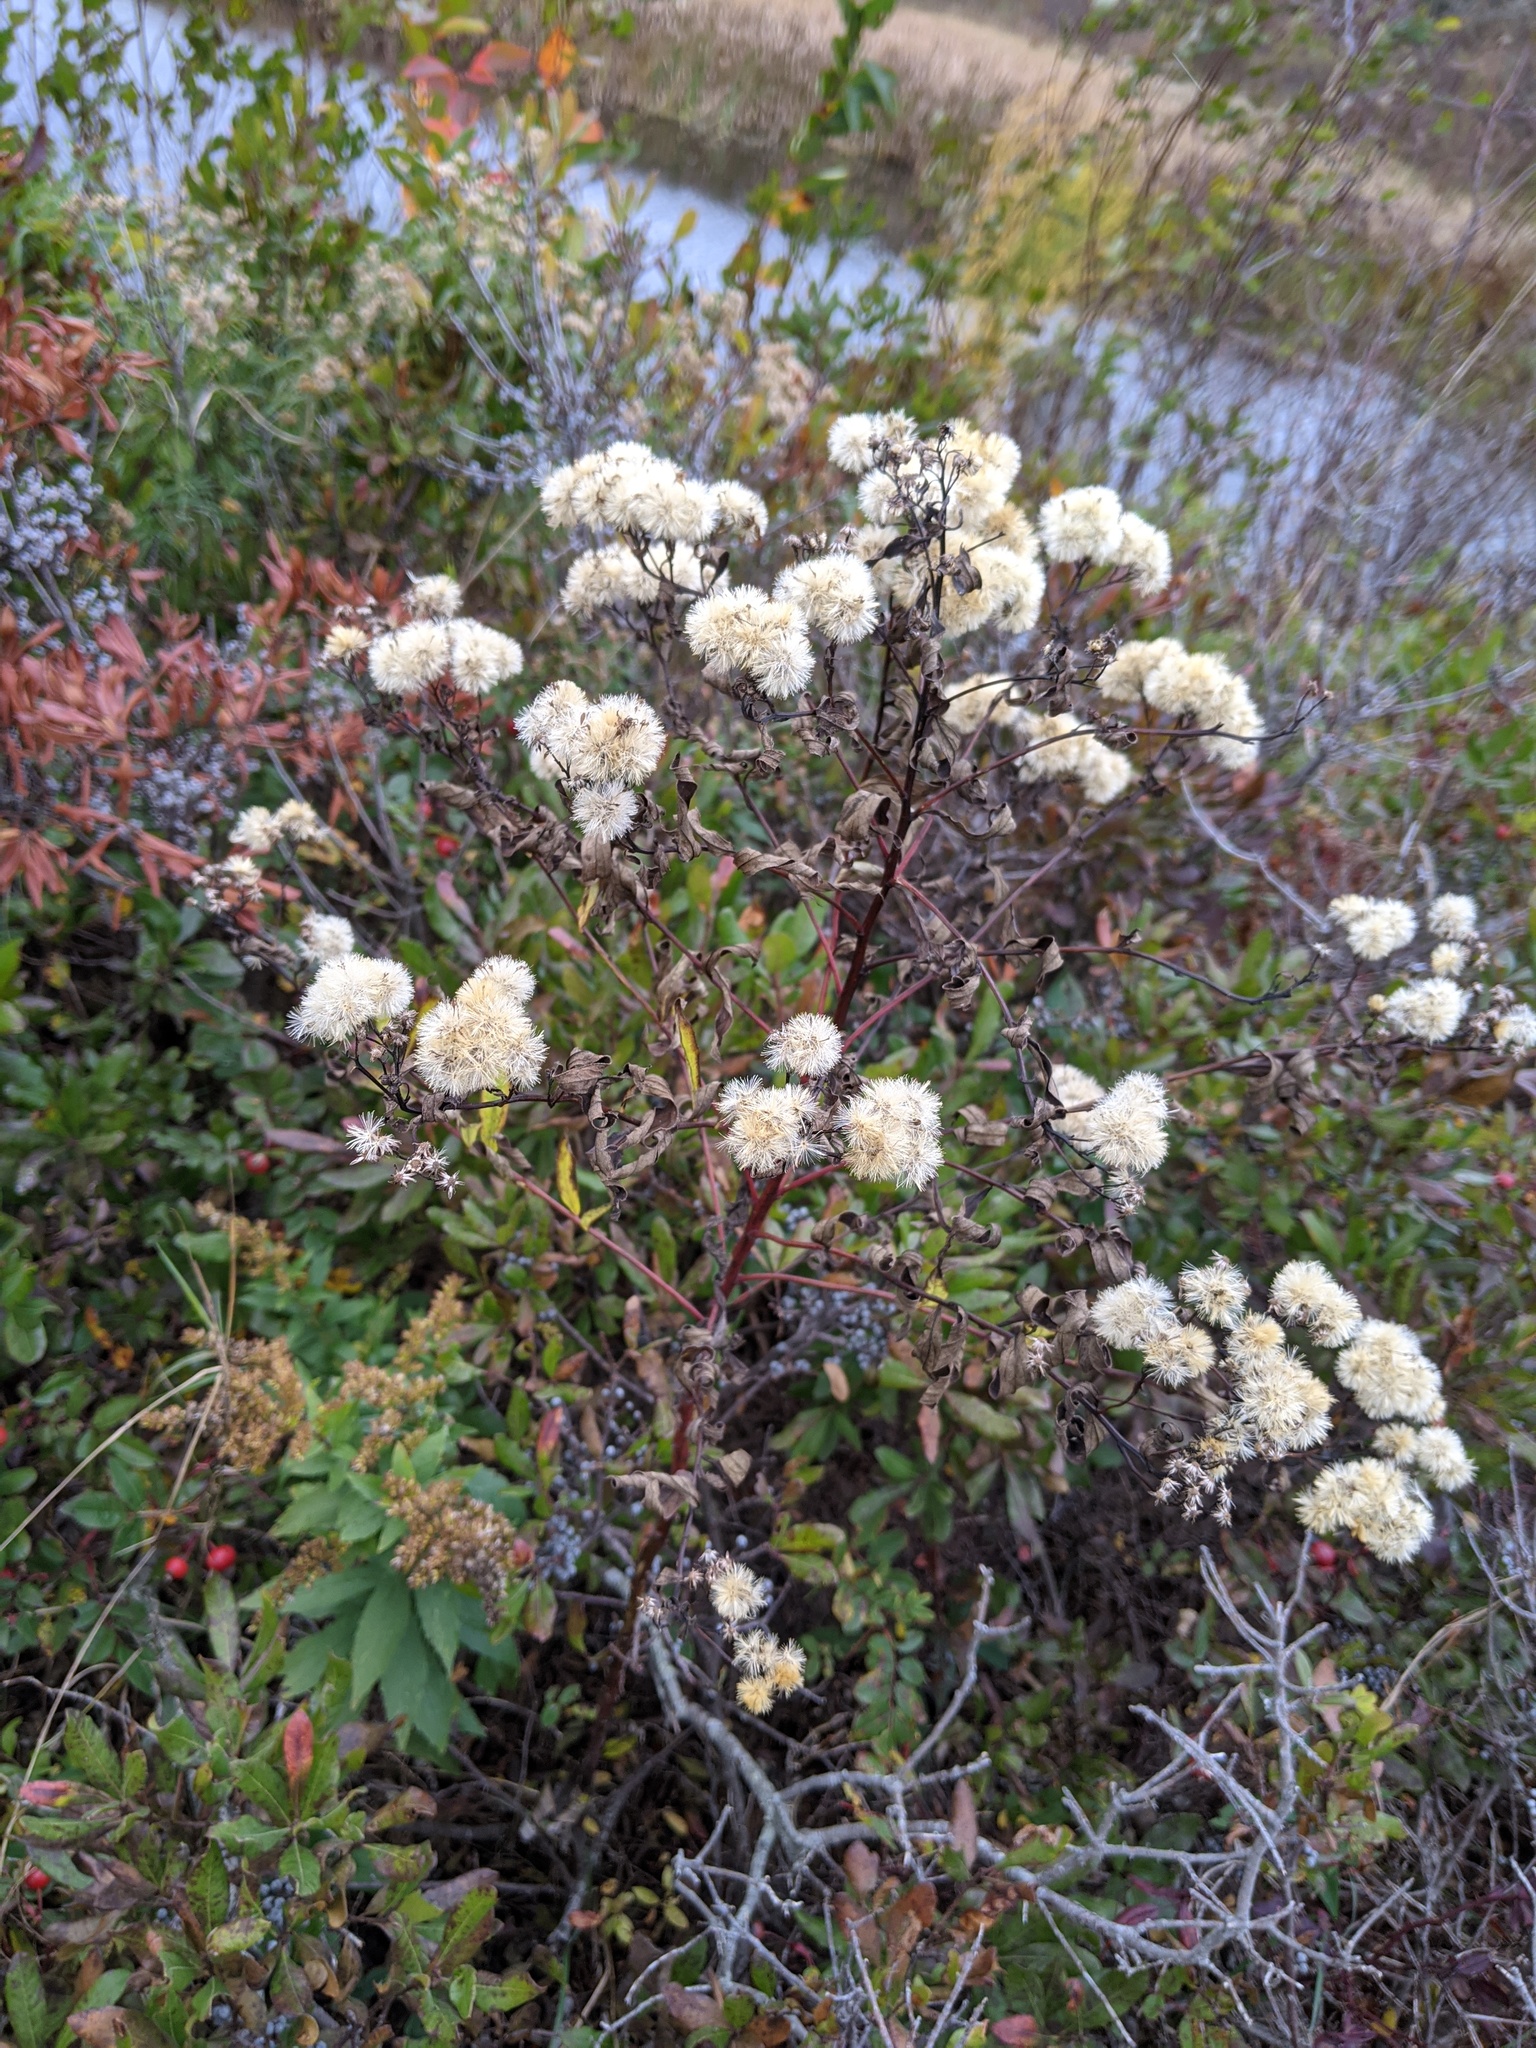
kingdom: Plantae
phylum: Tracheophyta
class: Magnoliopsida
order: Asterales
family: Asteraceae
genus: Doellingeria
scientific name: Doellingeria umbellata
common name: Flat-top white aster
